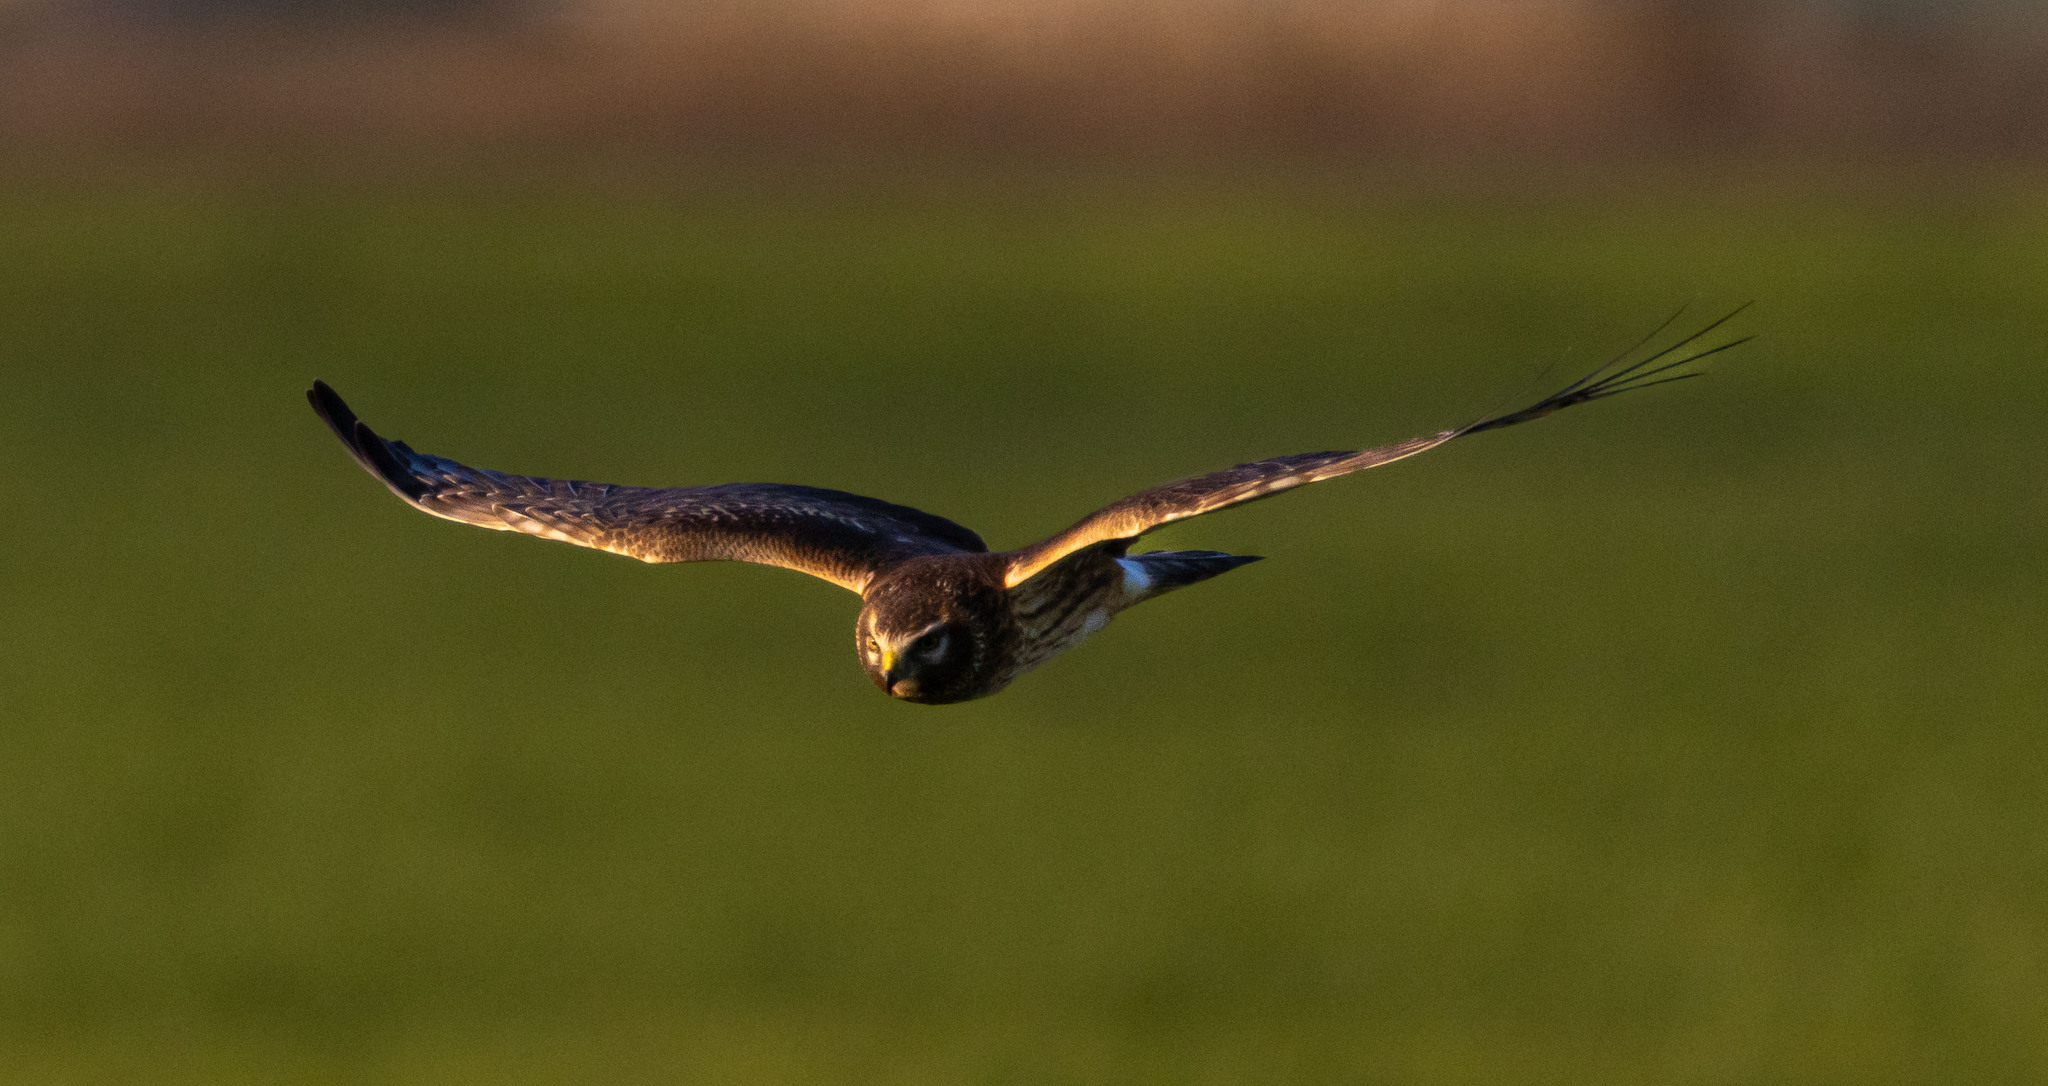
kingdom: Animalia
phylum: Chordata
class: Aves
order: Accipitriformes
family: Accipitridae
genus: Circus
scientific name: Circus cyaneus
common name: Hen harrier
